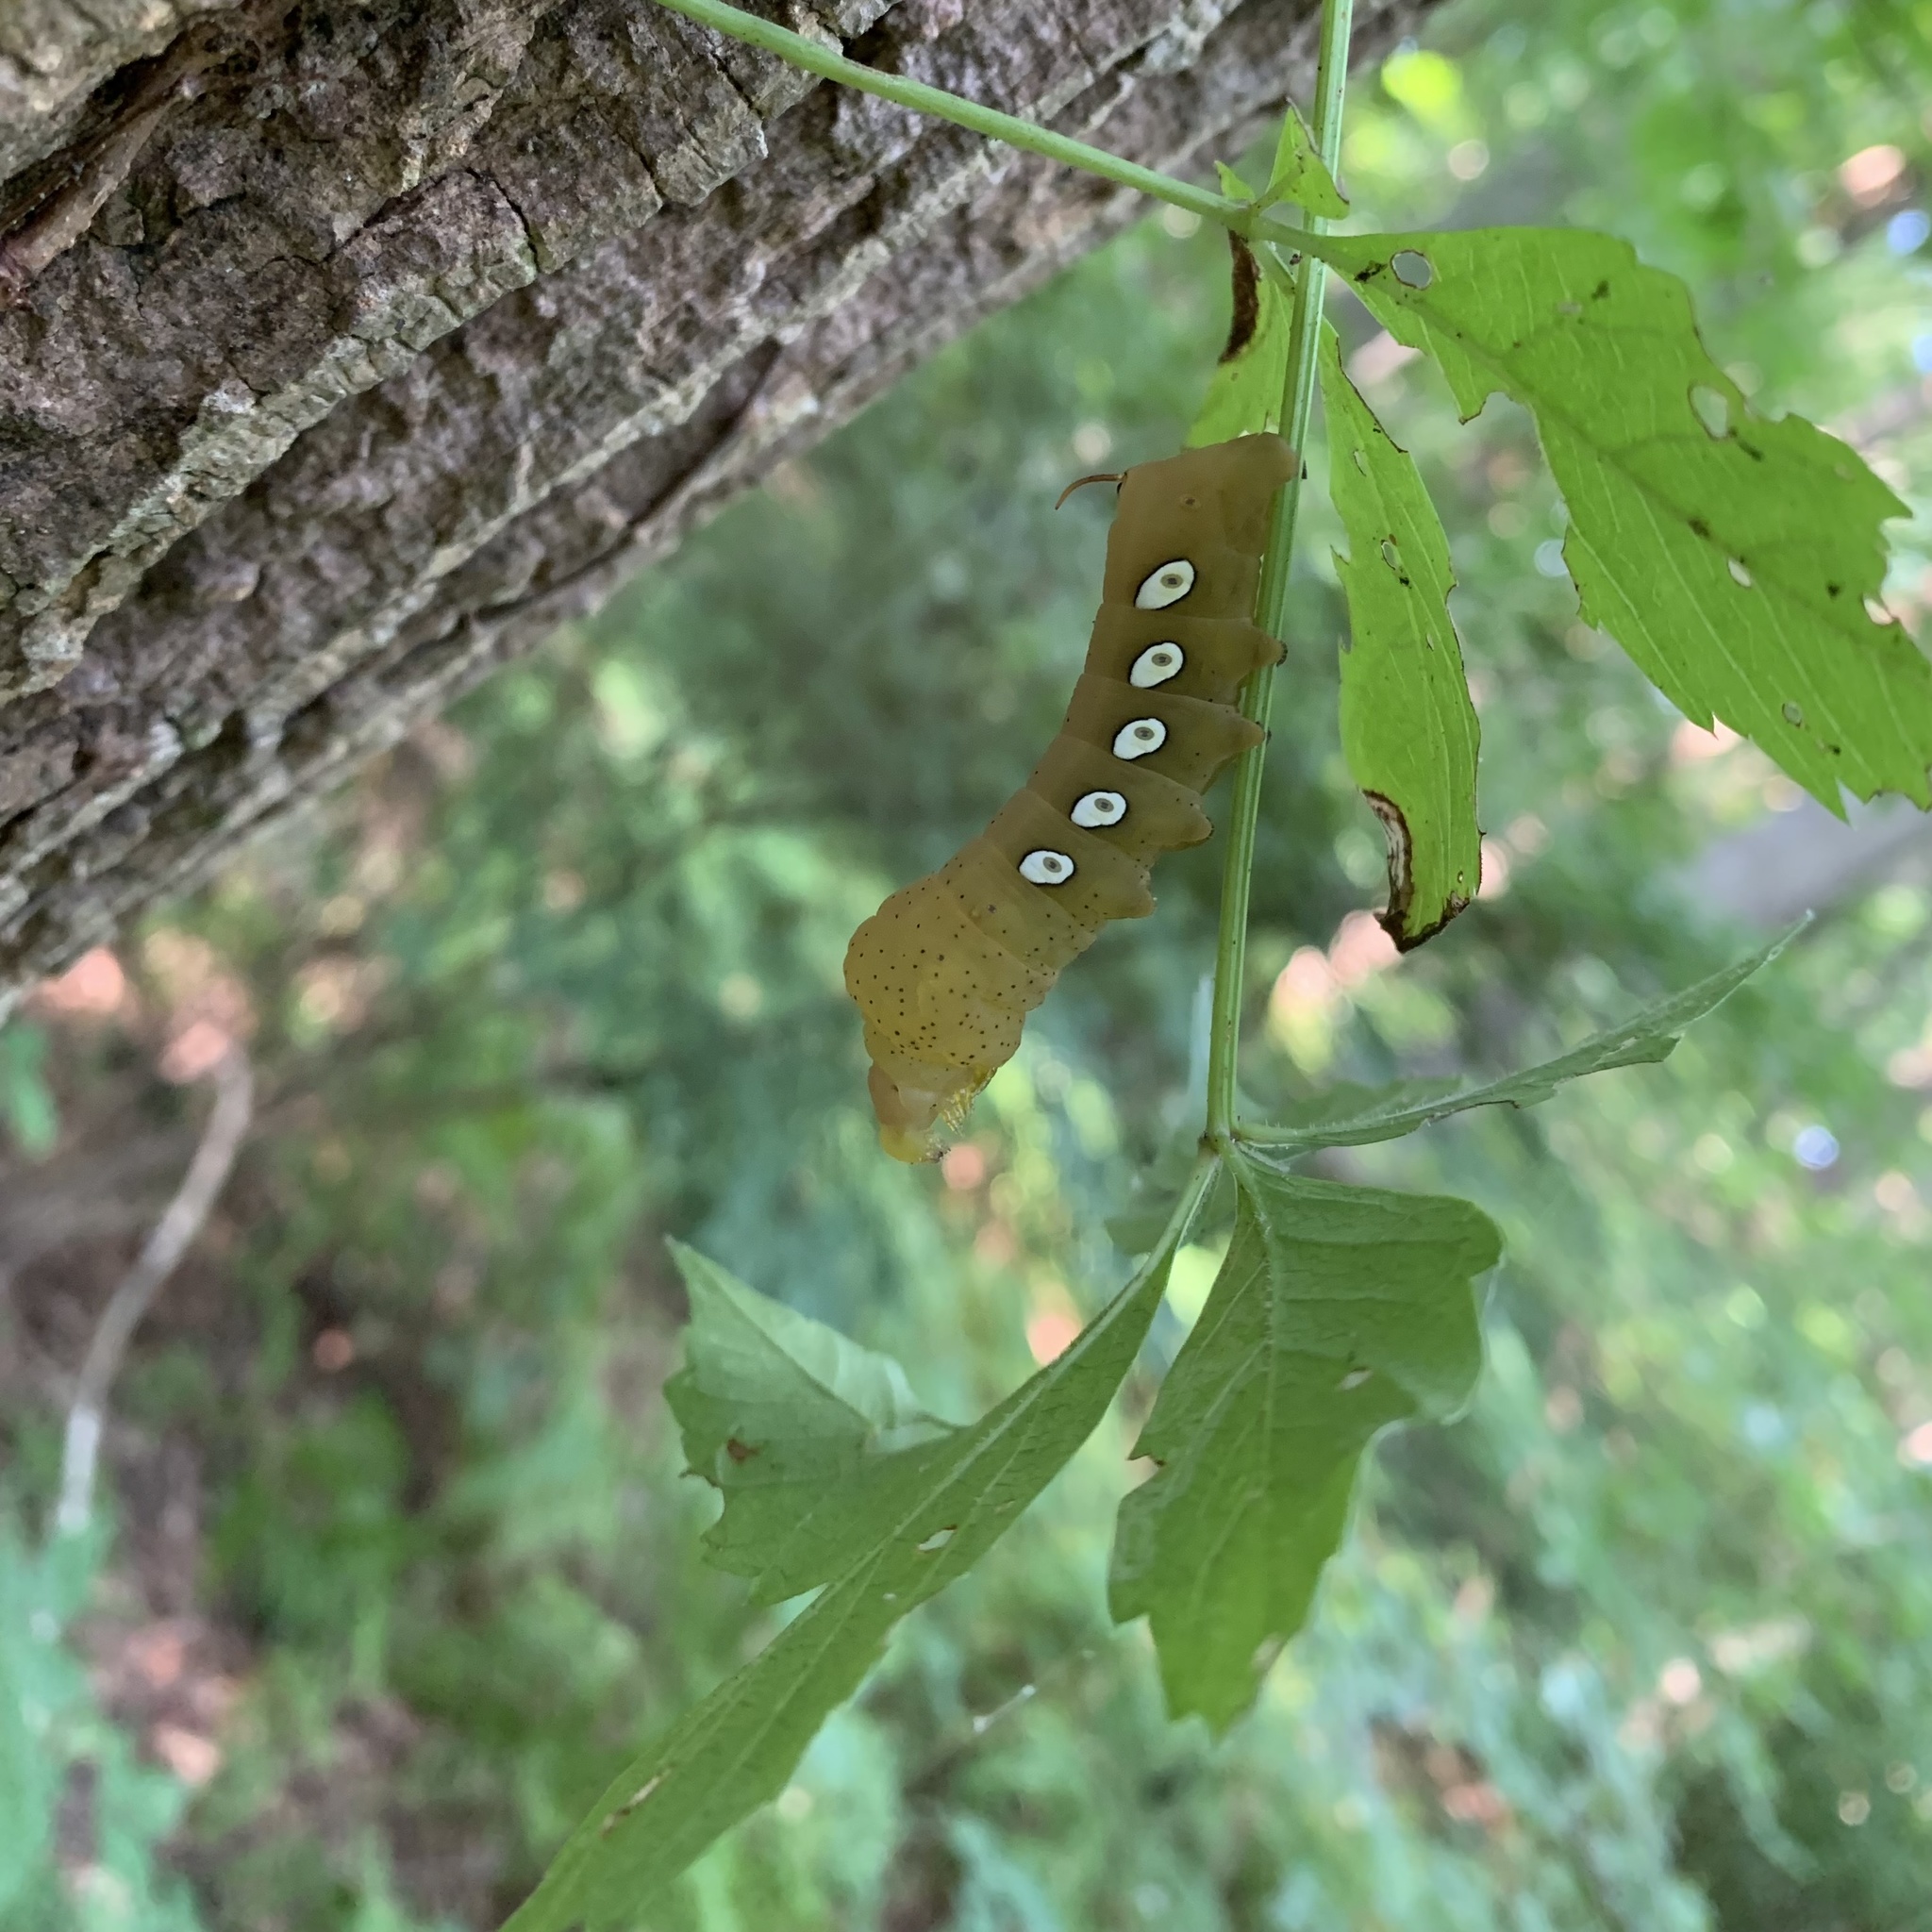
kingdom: Animalia
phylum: Arthropoda
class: Insecta
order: Lepidoptera
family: Sphingidae
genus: Eumorpha
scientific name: Eumorpha pandorus
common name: Pandora sphinx
